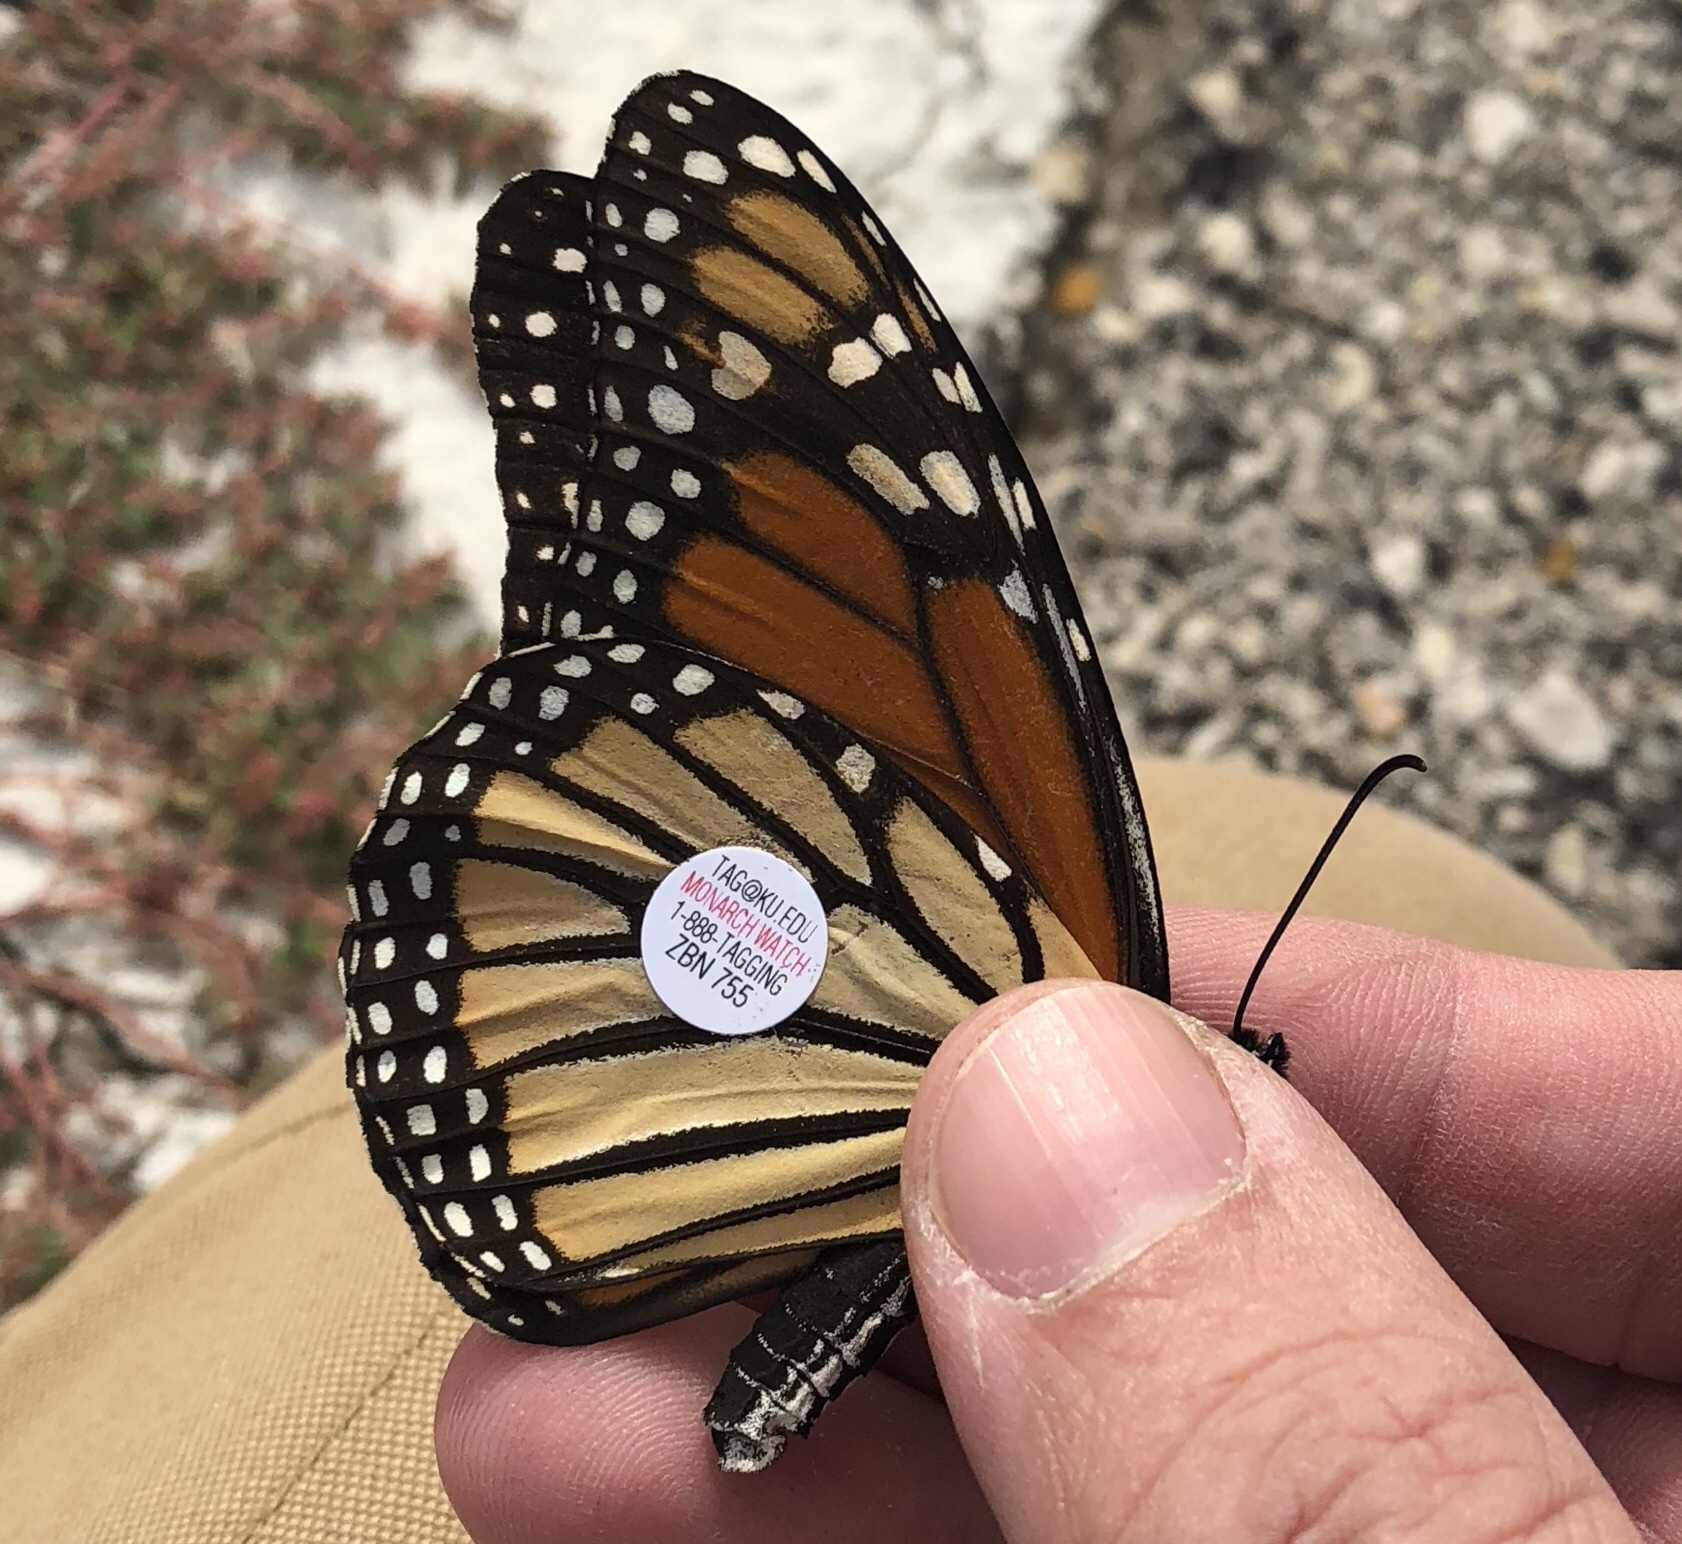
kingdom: Animalia
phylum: Arthropoda
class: Insecta
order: Lepidoptera
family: Nymphalidae
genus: Danaus
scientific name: Danaus plexippus
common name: Monarch
